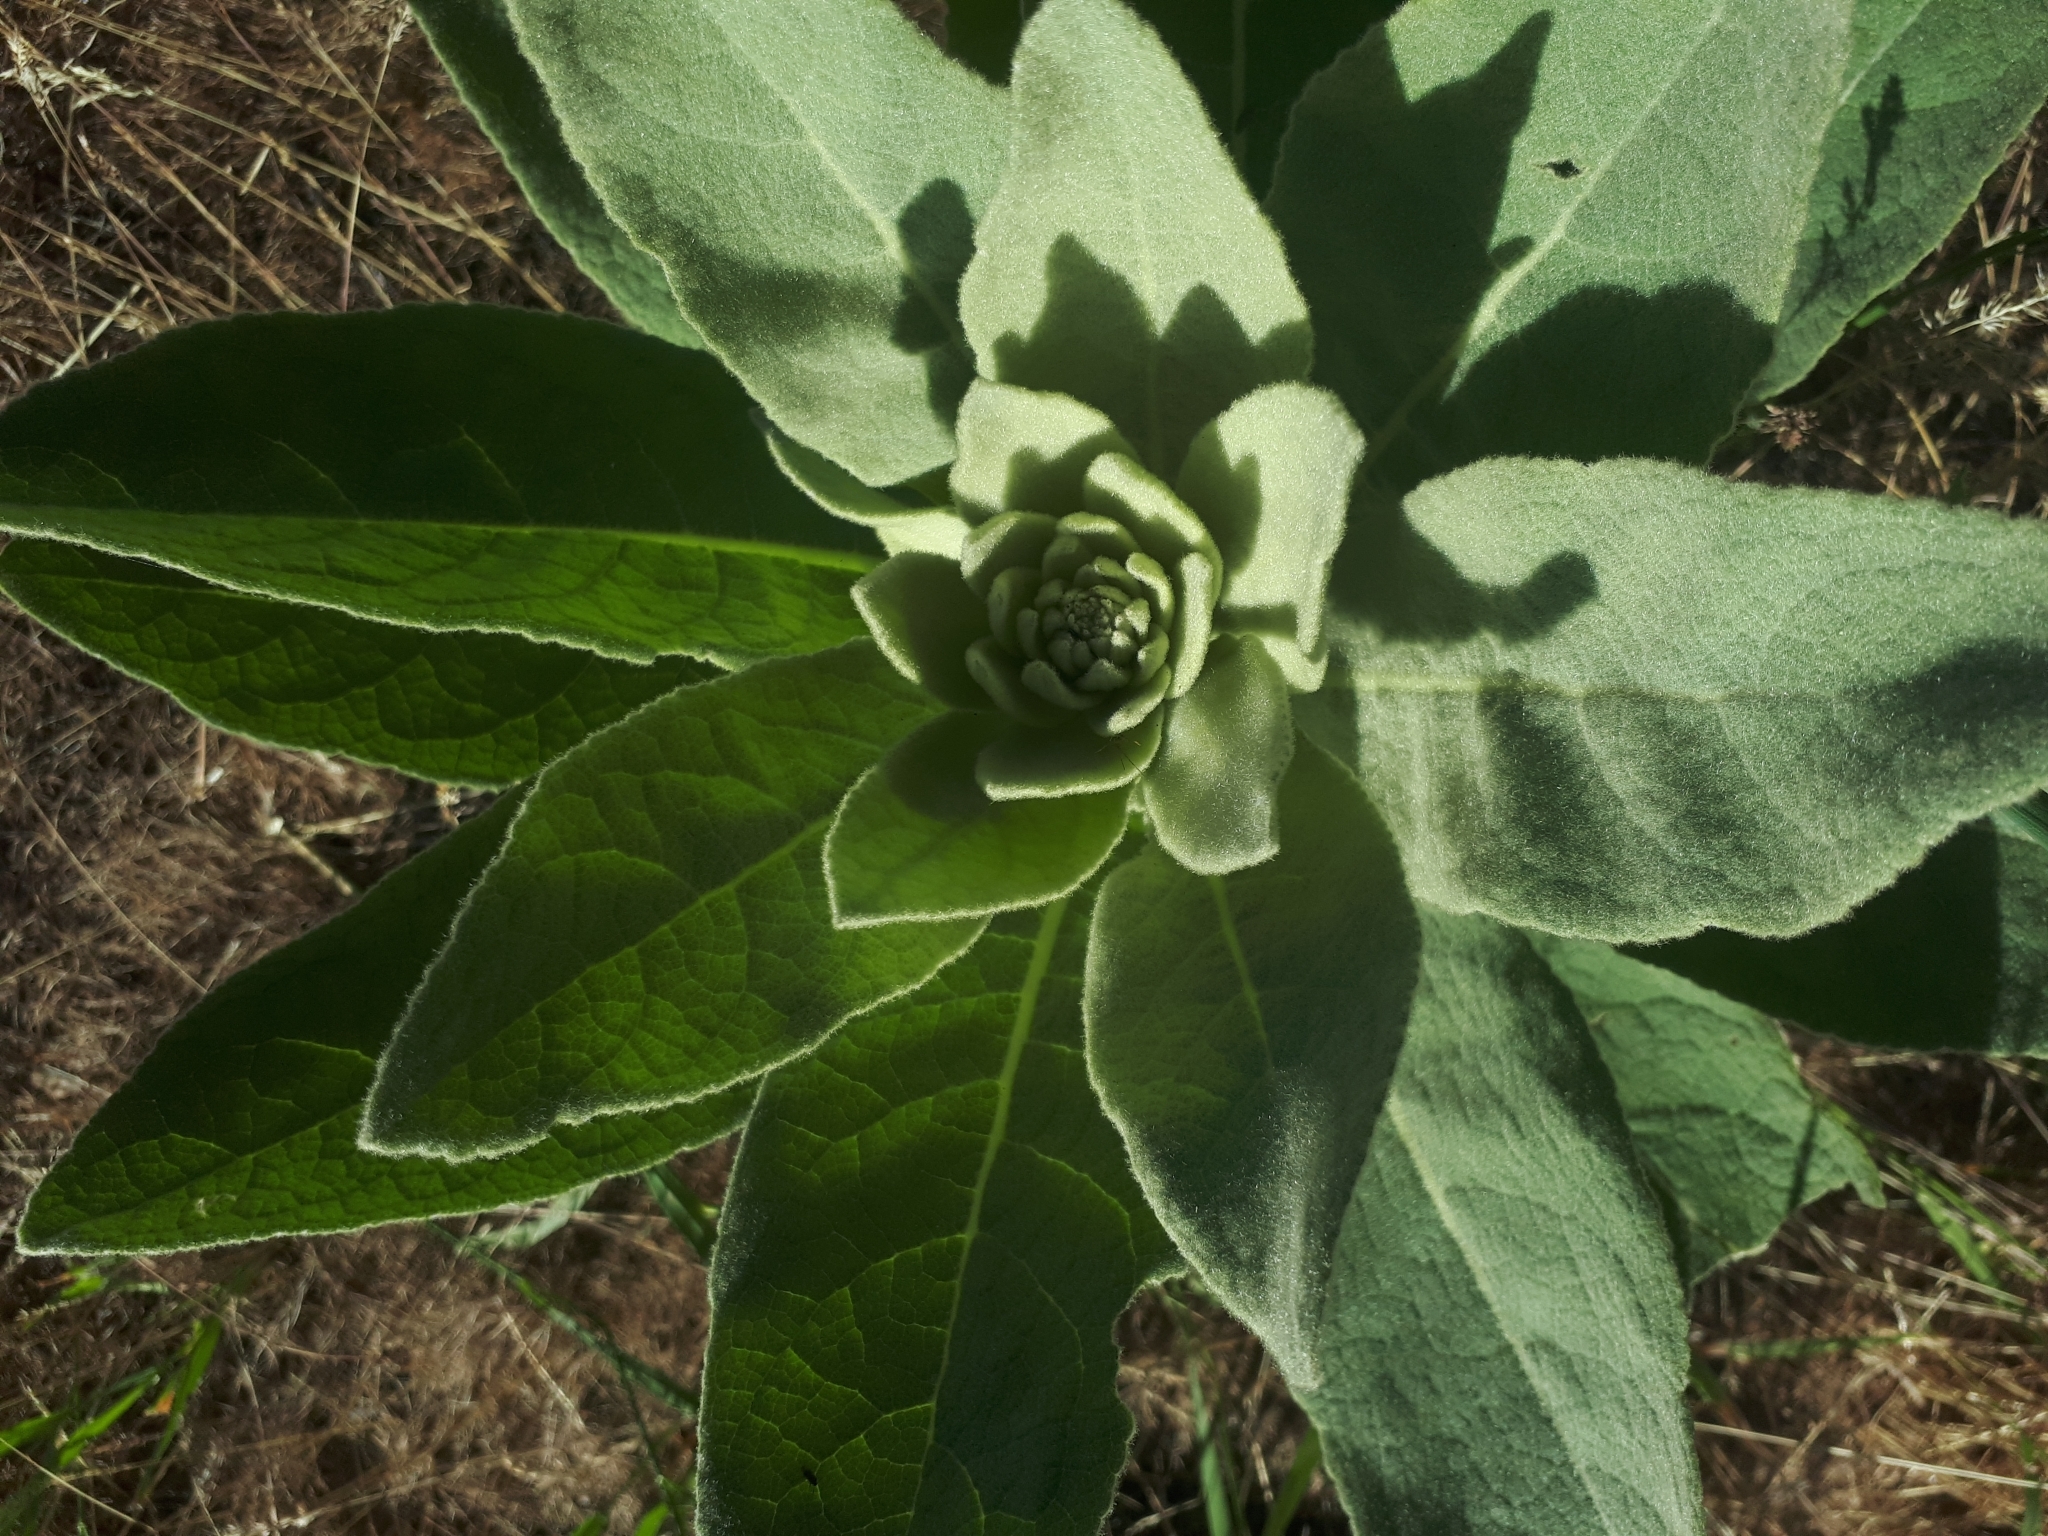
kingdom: Plantae
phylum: Tracheophyta
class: Magnoliopsida
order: Lamiales
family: Scrophulariaceae
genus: Verbascum
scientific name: Verbascum thapsus
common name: Common mullein
